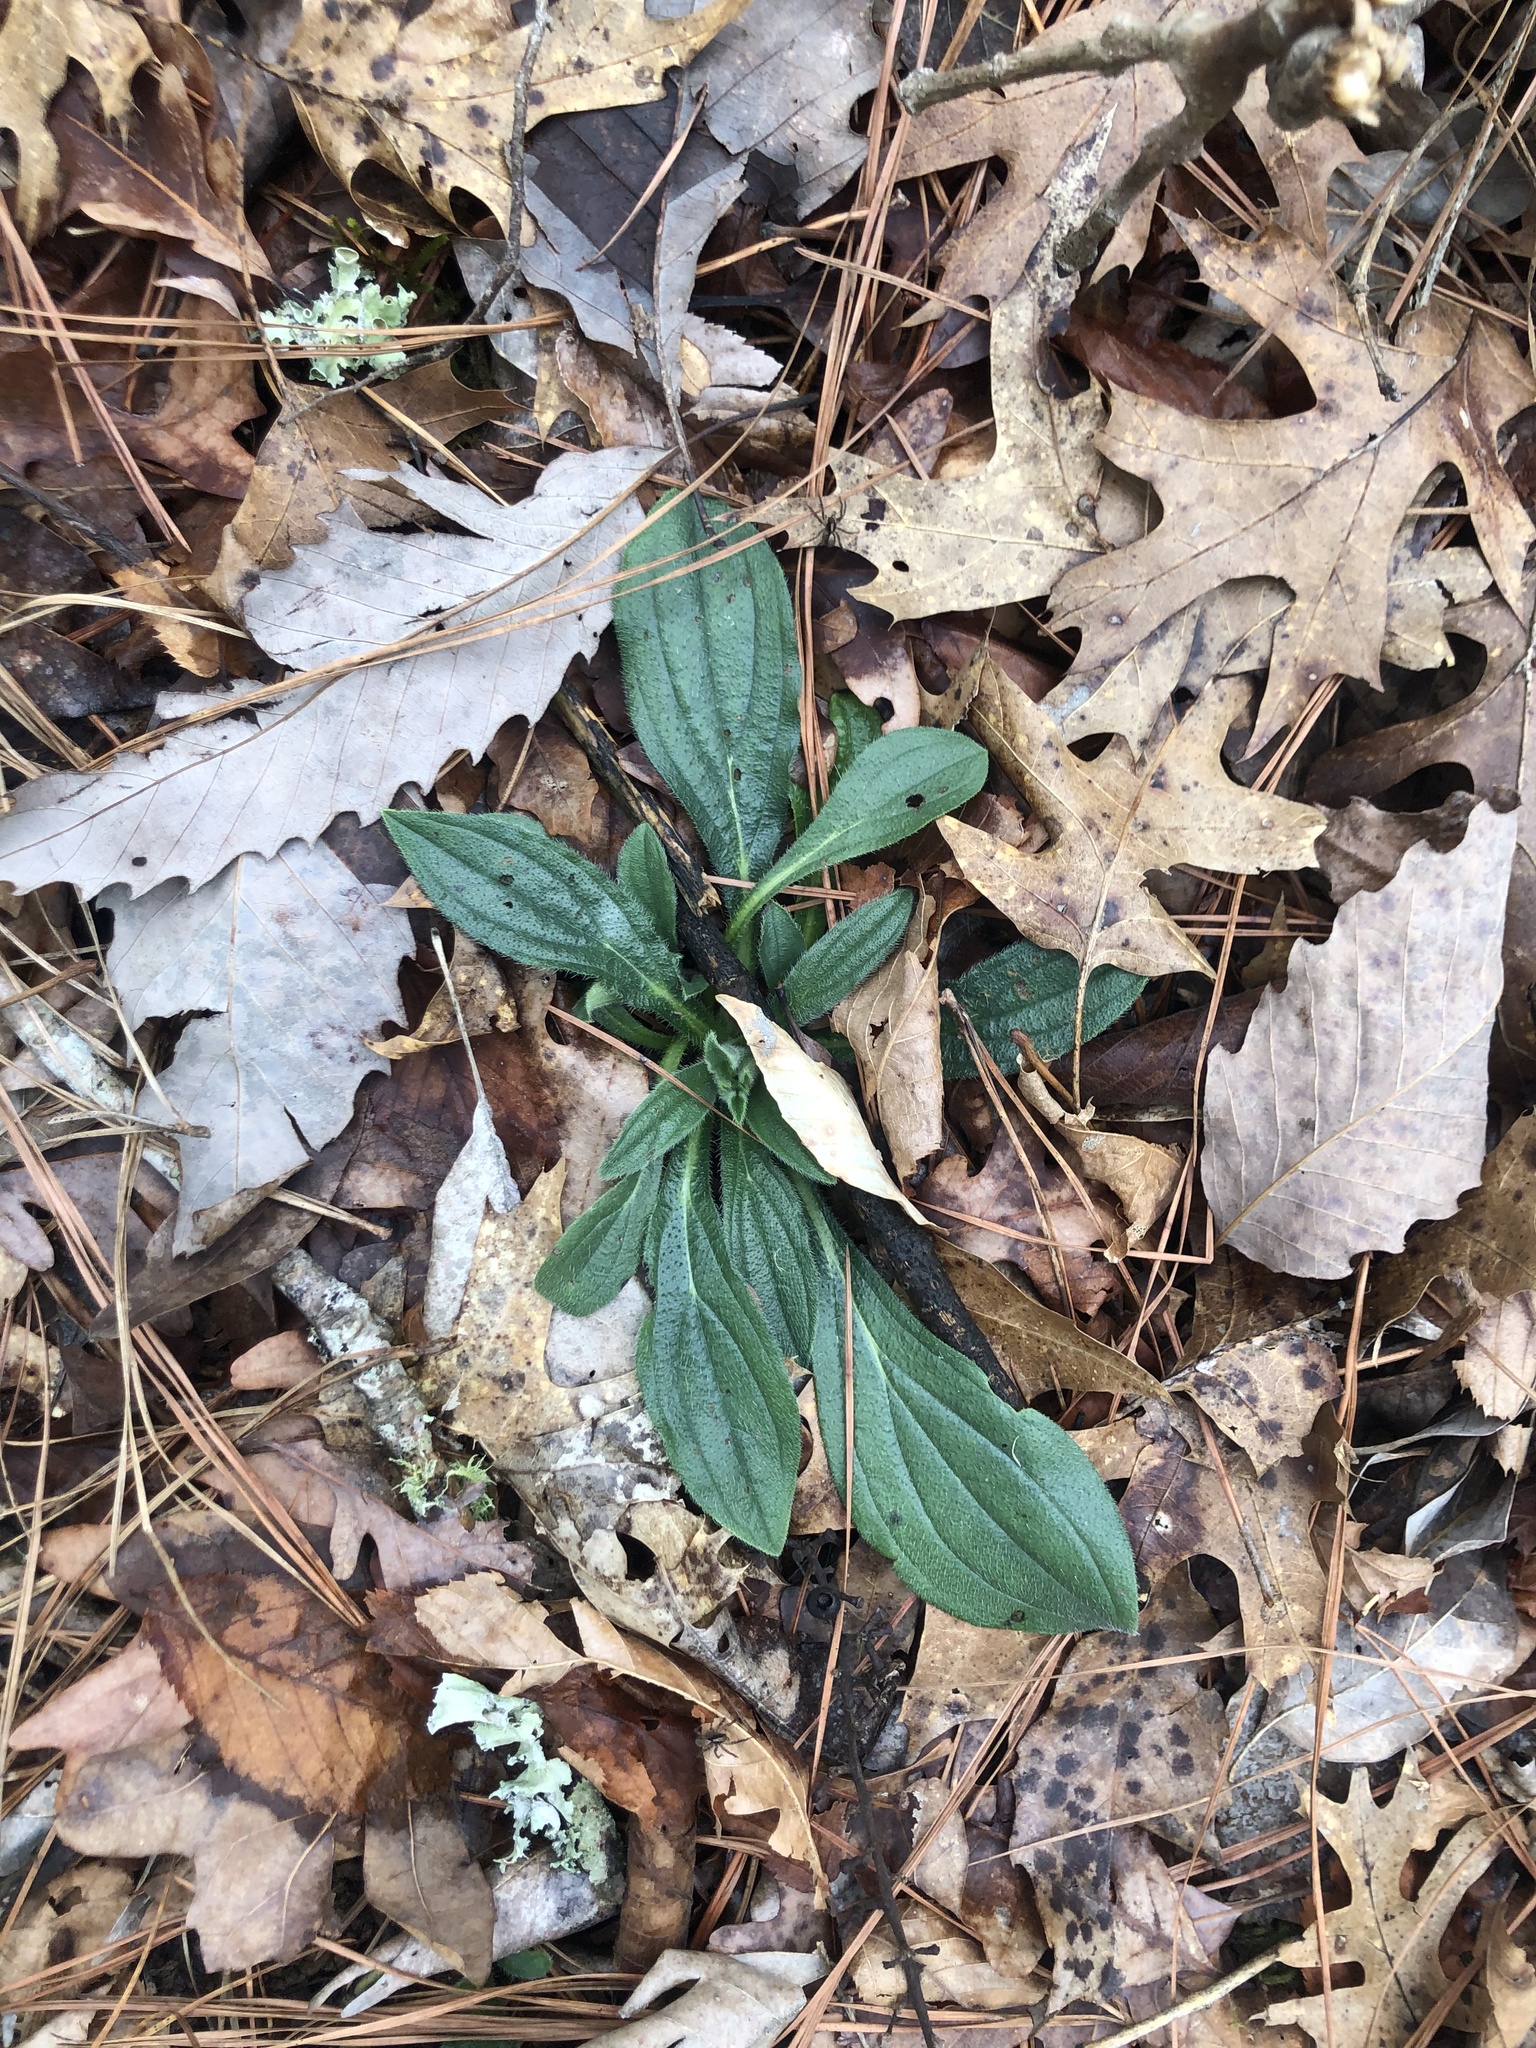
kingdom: Plantae
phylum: Tracheophyta
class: Magnoliopsida
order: Boraginales
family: Boraginaceae
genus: Lithospermum
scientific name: Lithospermum tuberosum
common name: Southern stoneseed
